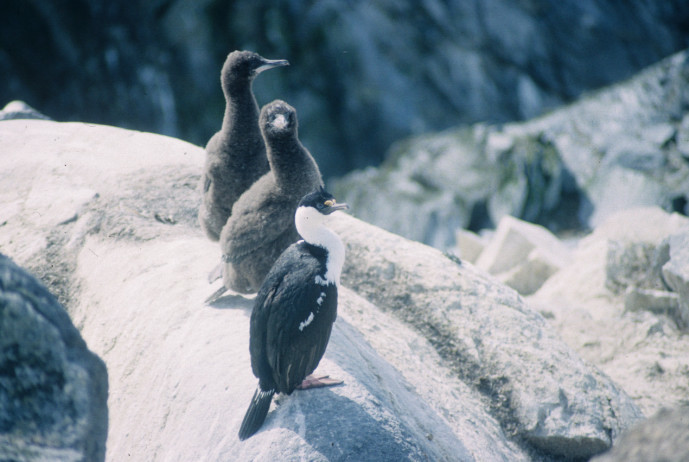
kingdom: Animalia
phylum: Chordata
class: Aves
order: Suliformes
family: Phalacrocoracidae
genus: Leucocarbo
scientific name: Leucocarbo atriceps
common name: Imperial shag
